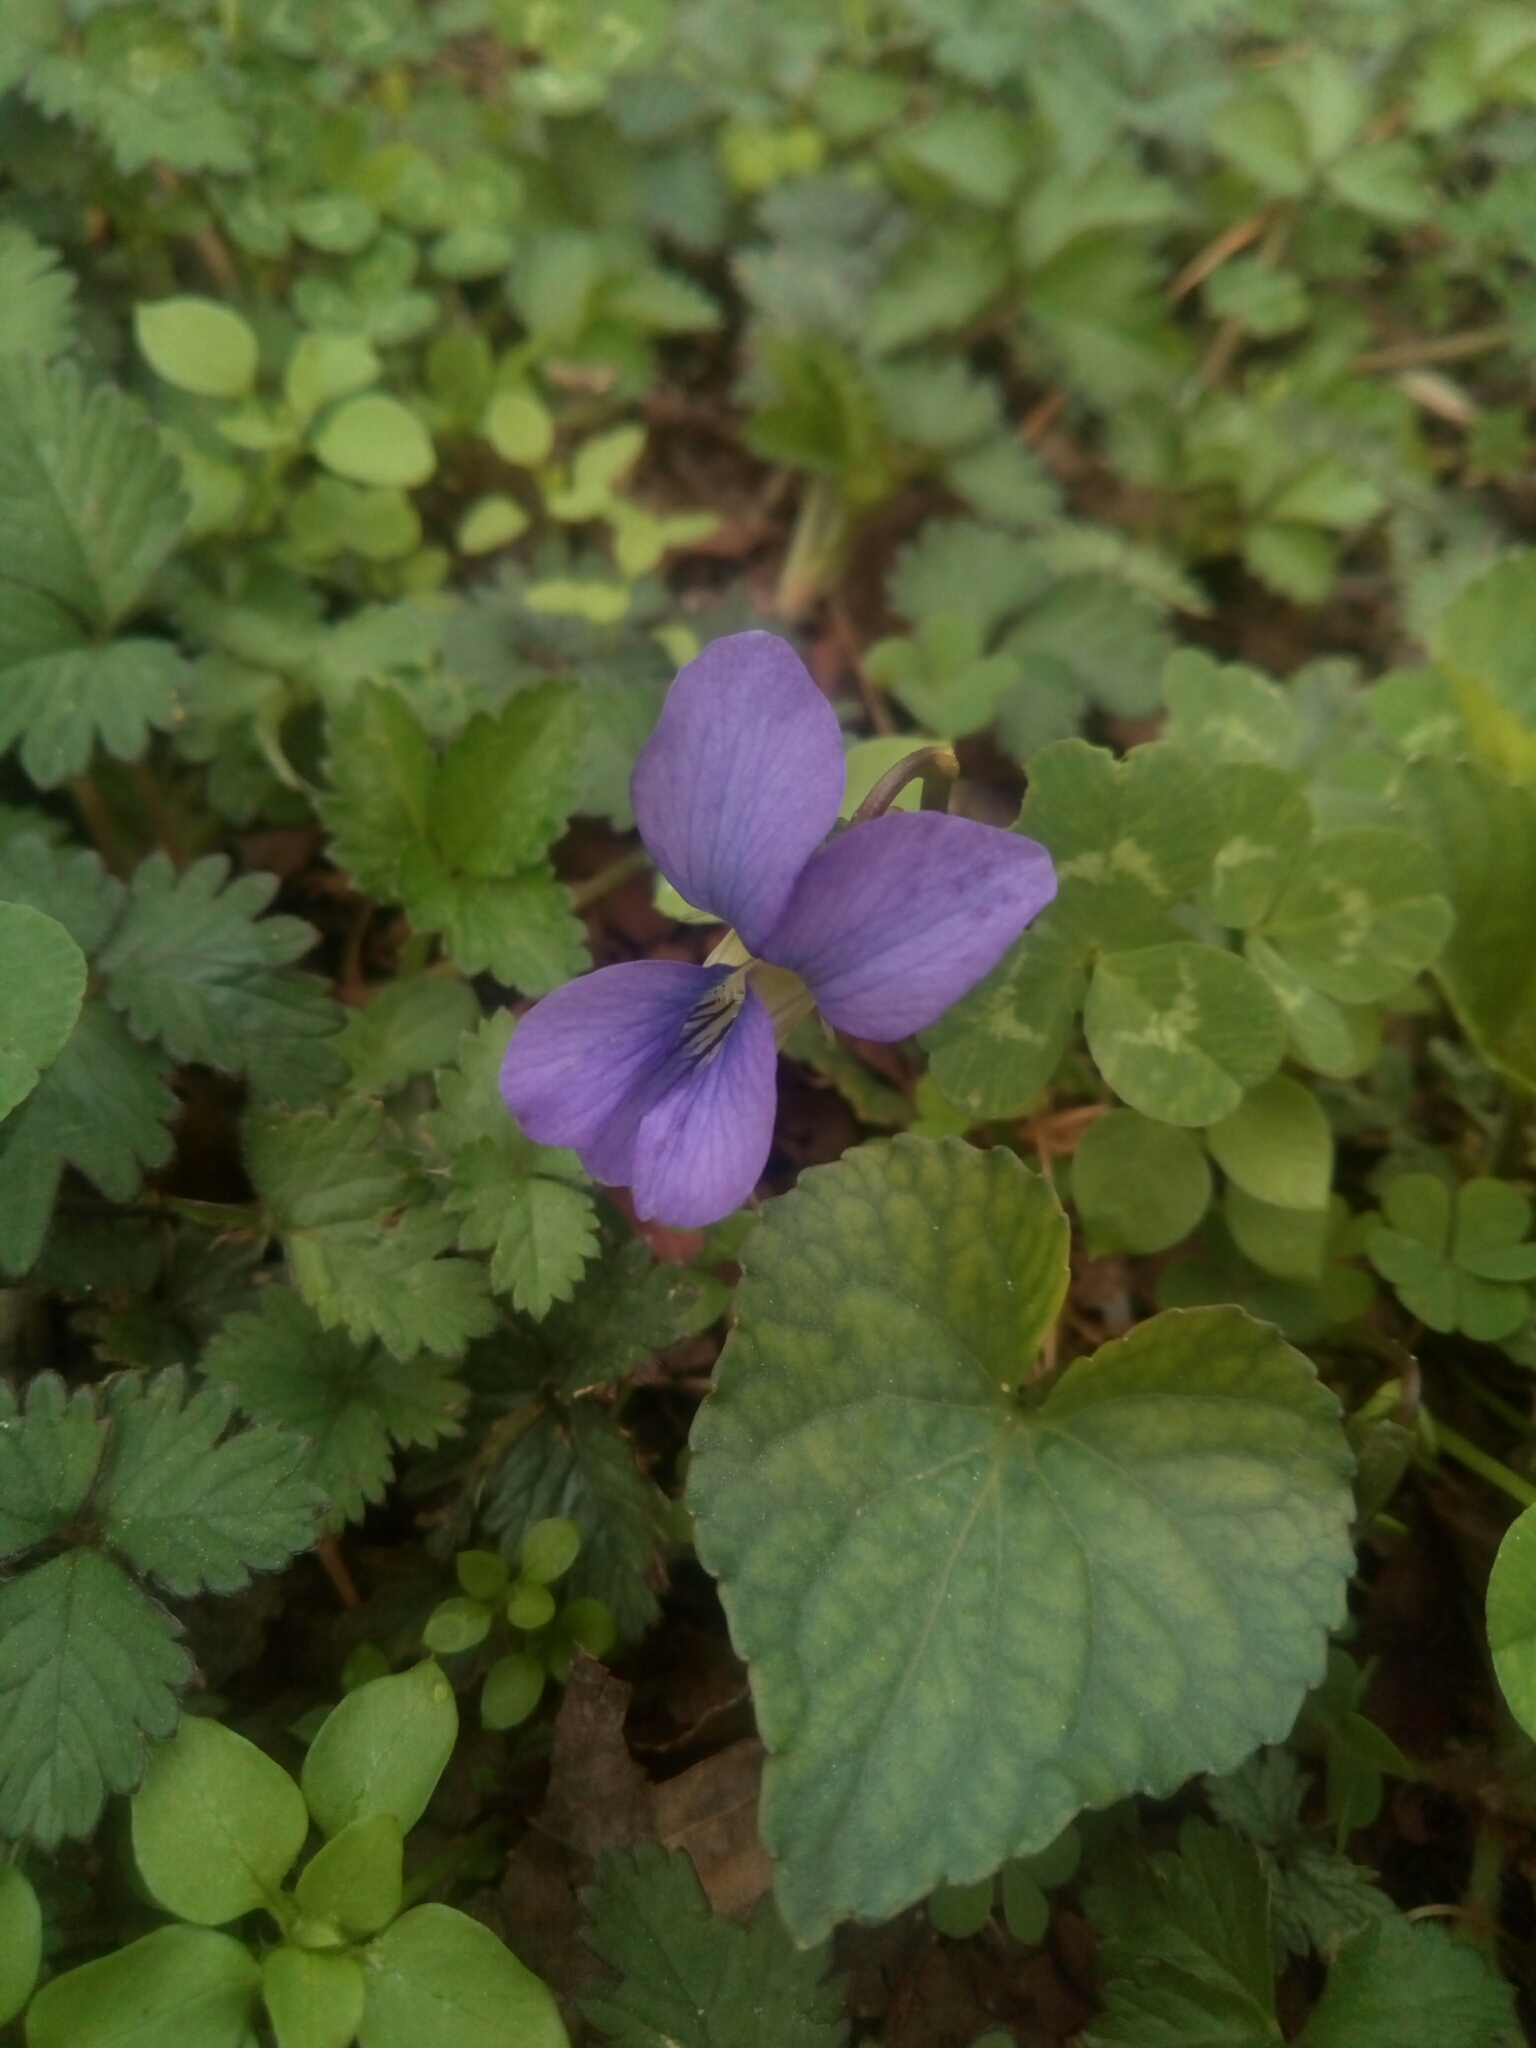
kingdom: Plantae
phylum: Tracheophyta
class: Magnoliopsida
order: Malpighiales
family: Violaceae
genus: Viola
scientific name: Viola sororia
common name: Dooryard violet
